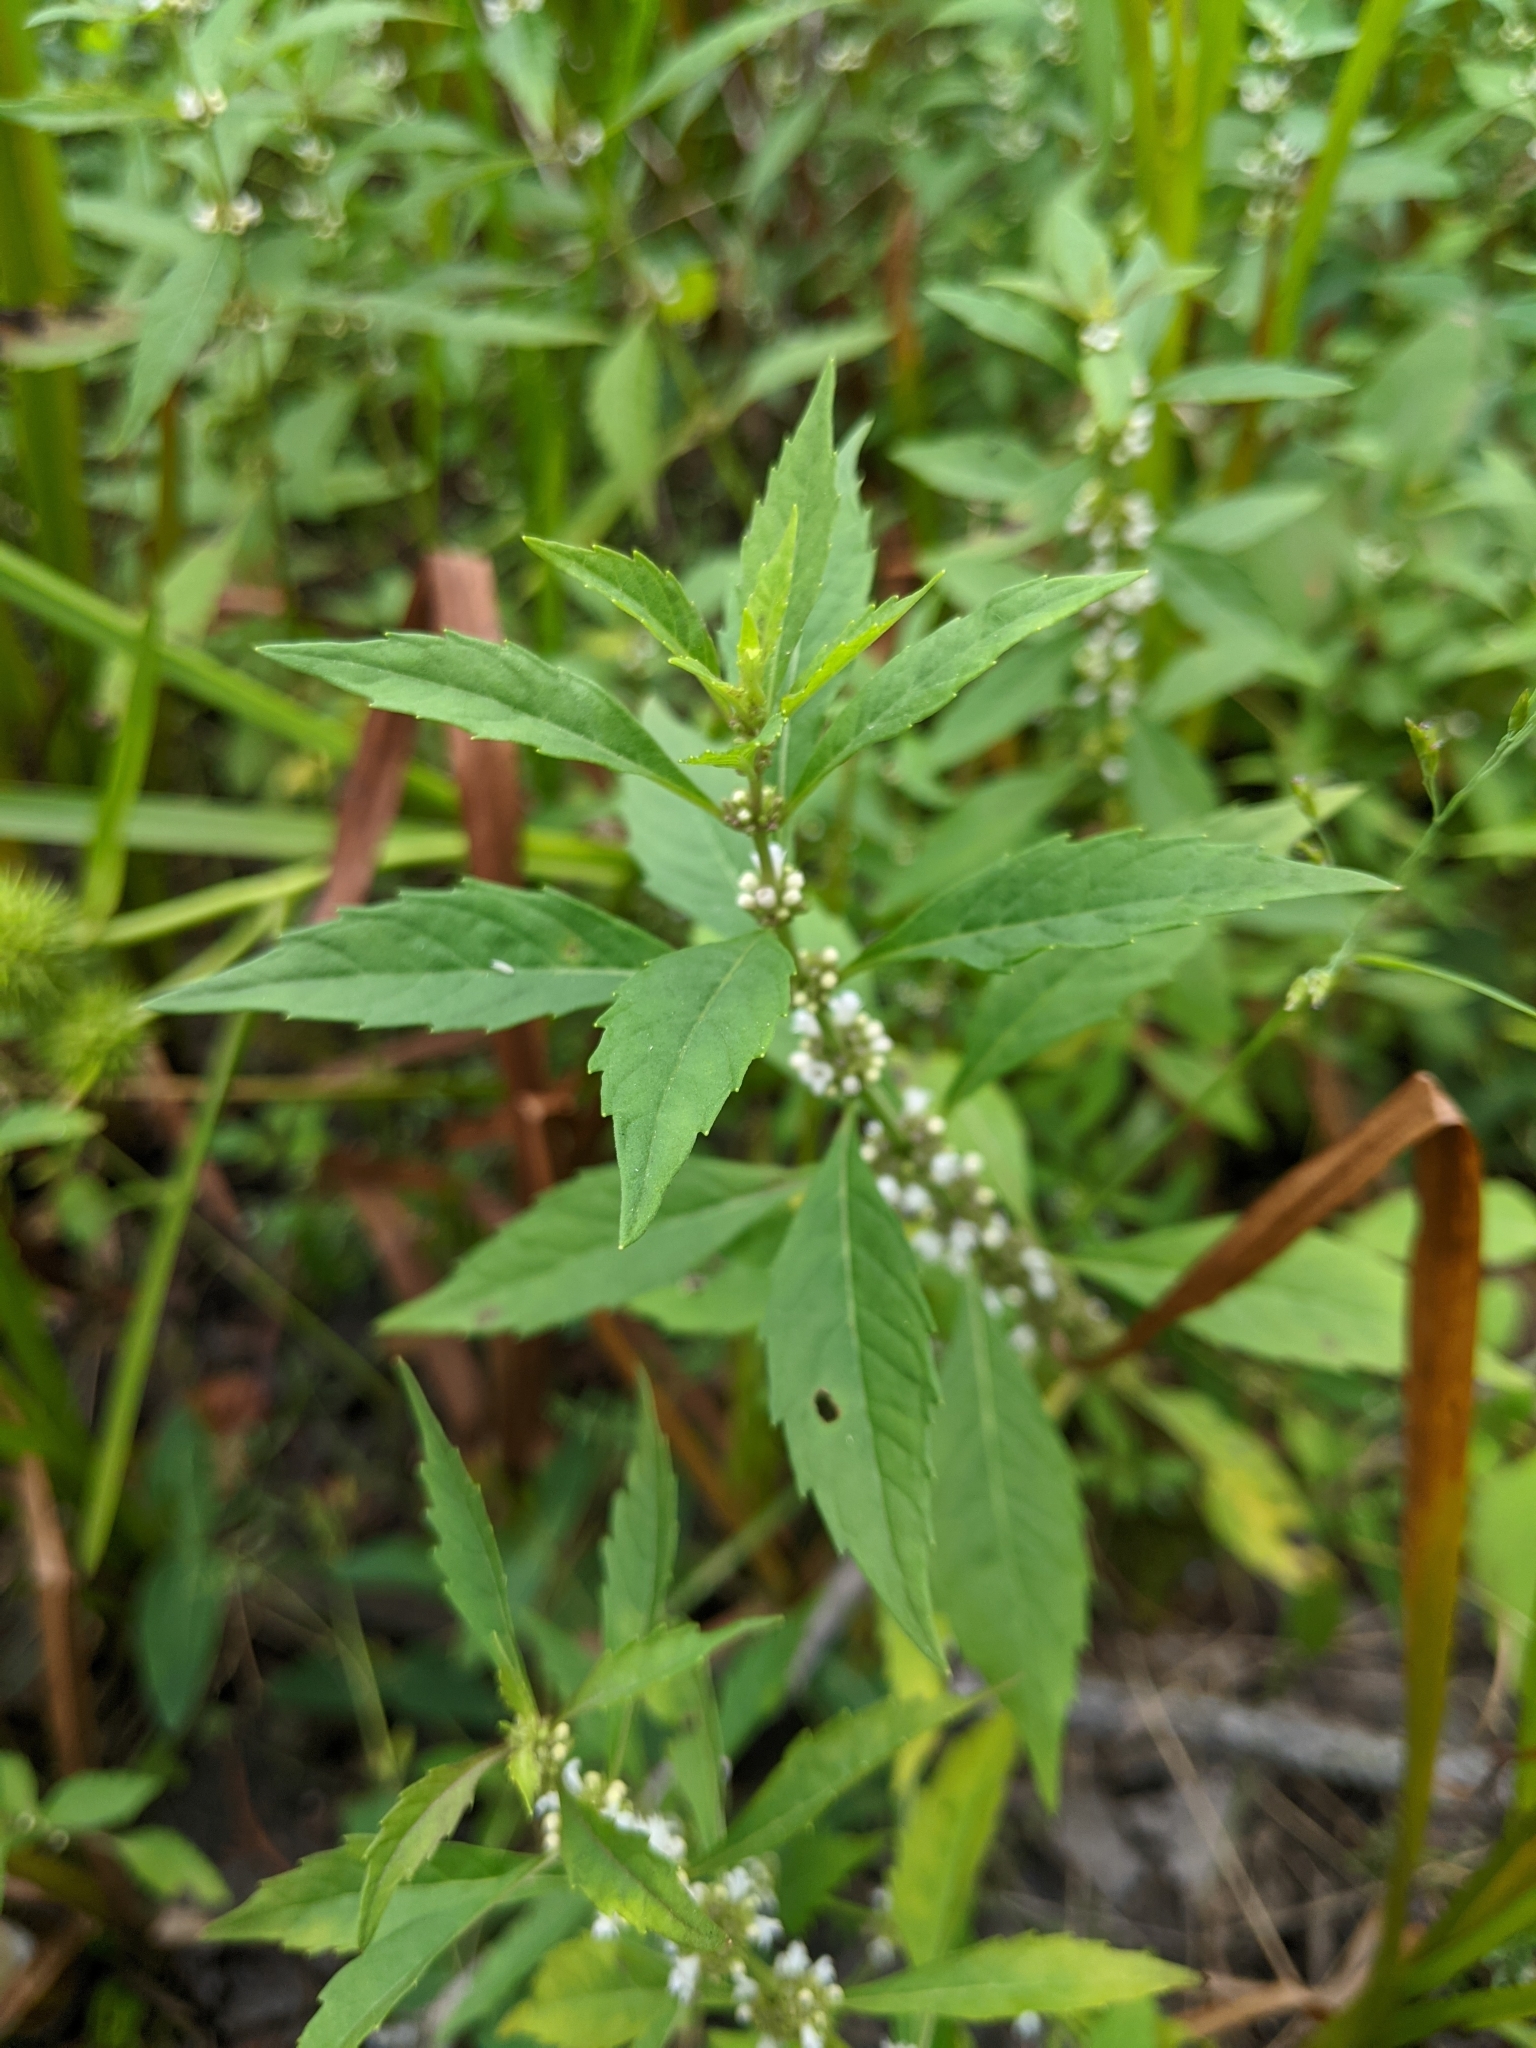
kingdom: Plantae
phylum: Tracheophyta
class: Magnoliopsida
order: Lamiales
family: Lamiaceae
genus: Lycopus
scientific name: Lycopus uniflorus
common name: Northern bugleweed
